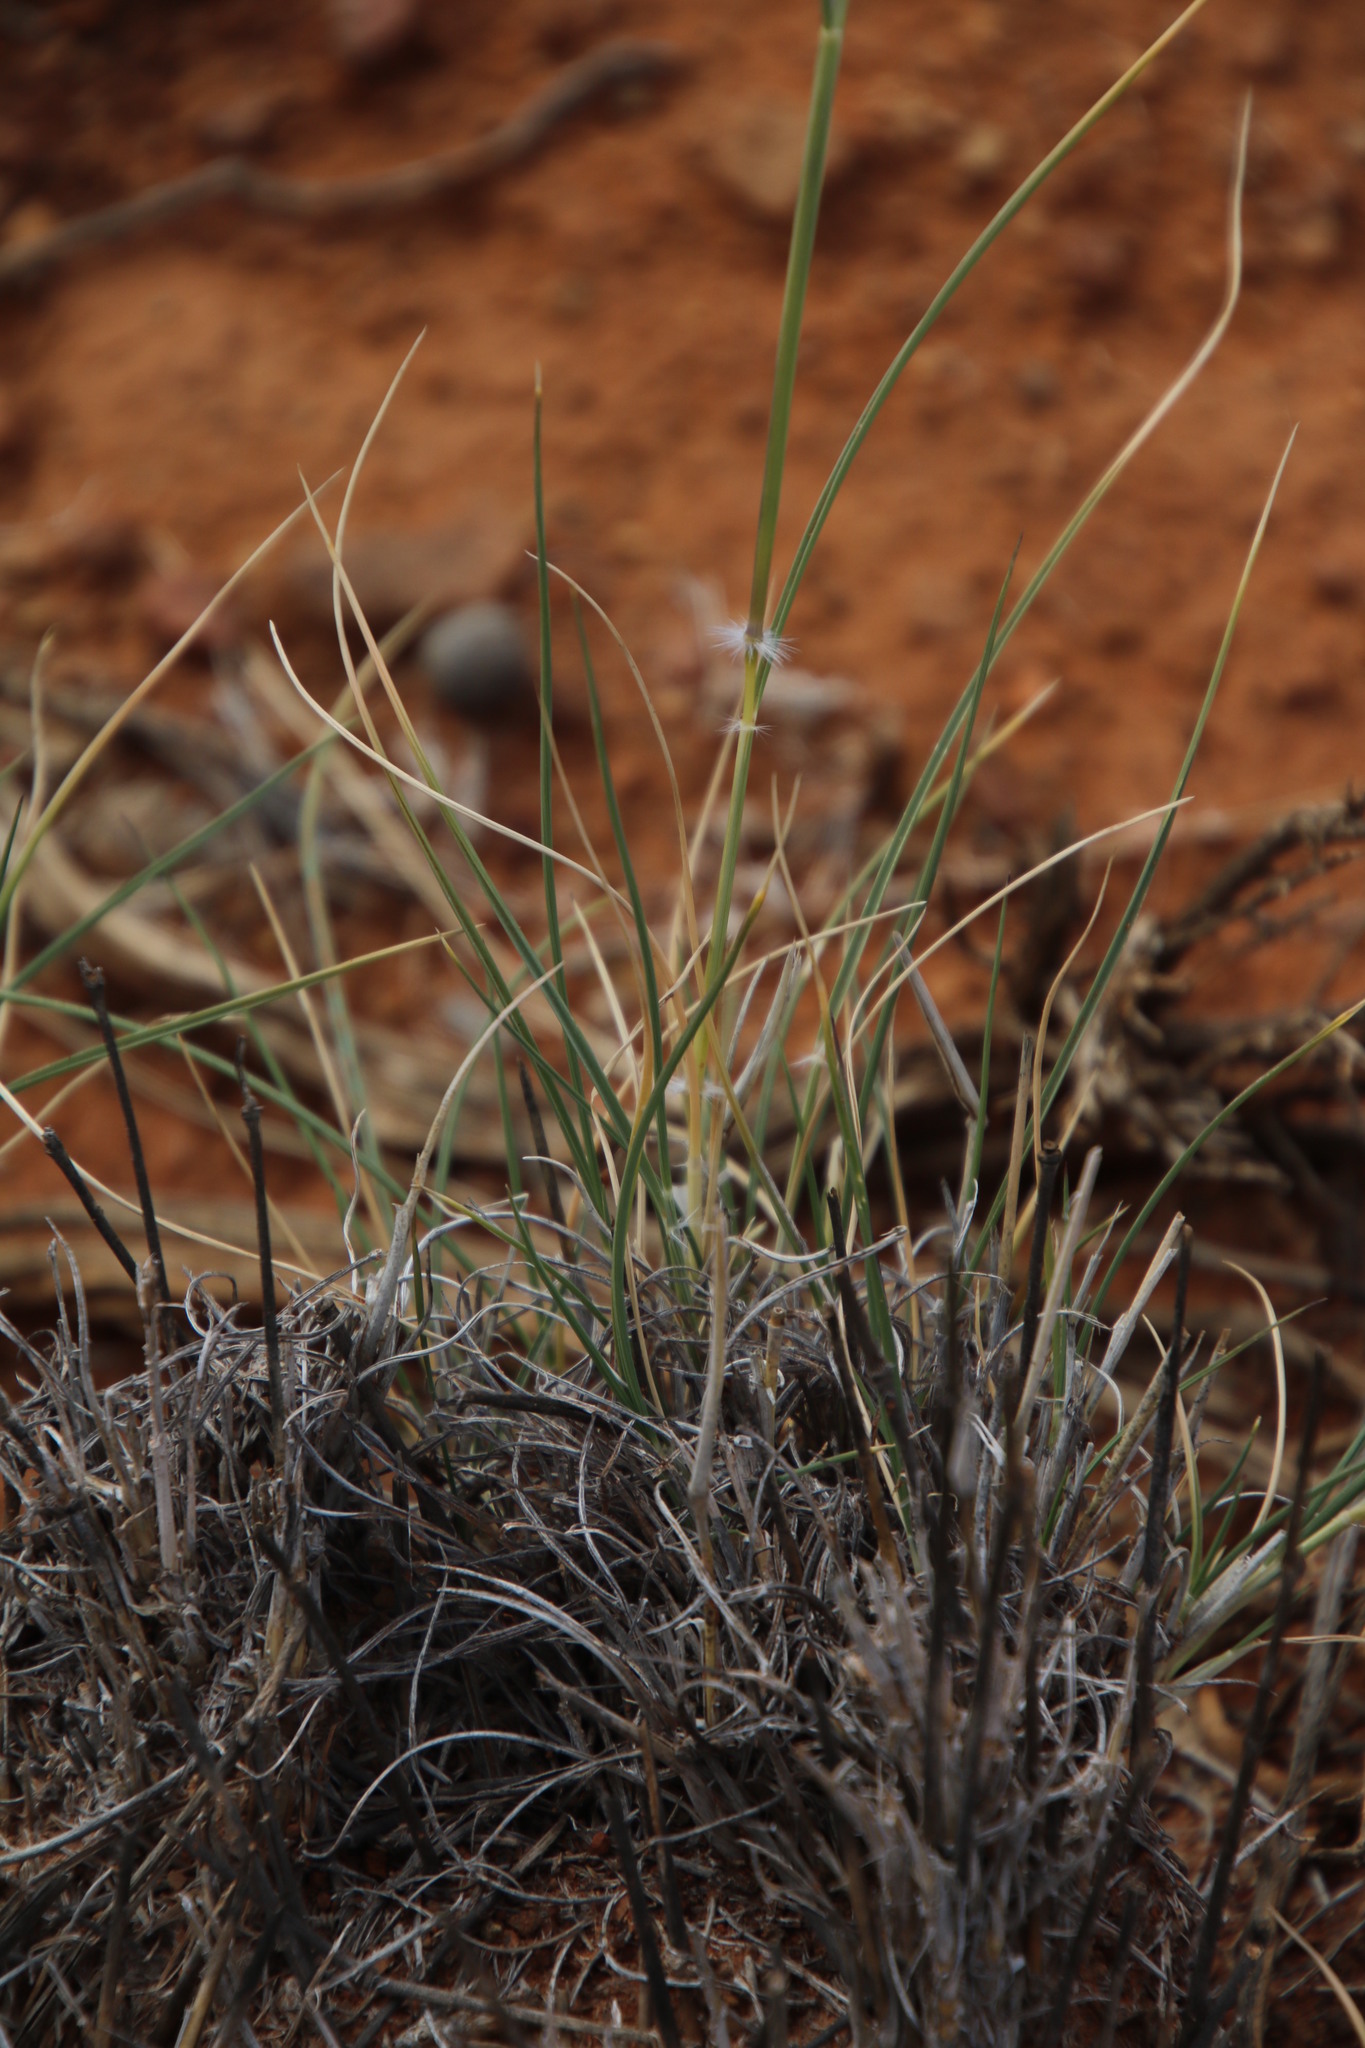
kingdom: Plantae
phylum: Tracheophyta
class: Liliopsida
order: Poales
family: Poaceae
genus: Stipagrostis
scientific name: Stipagrostis ciliata
